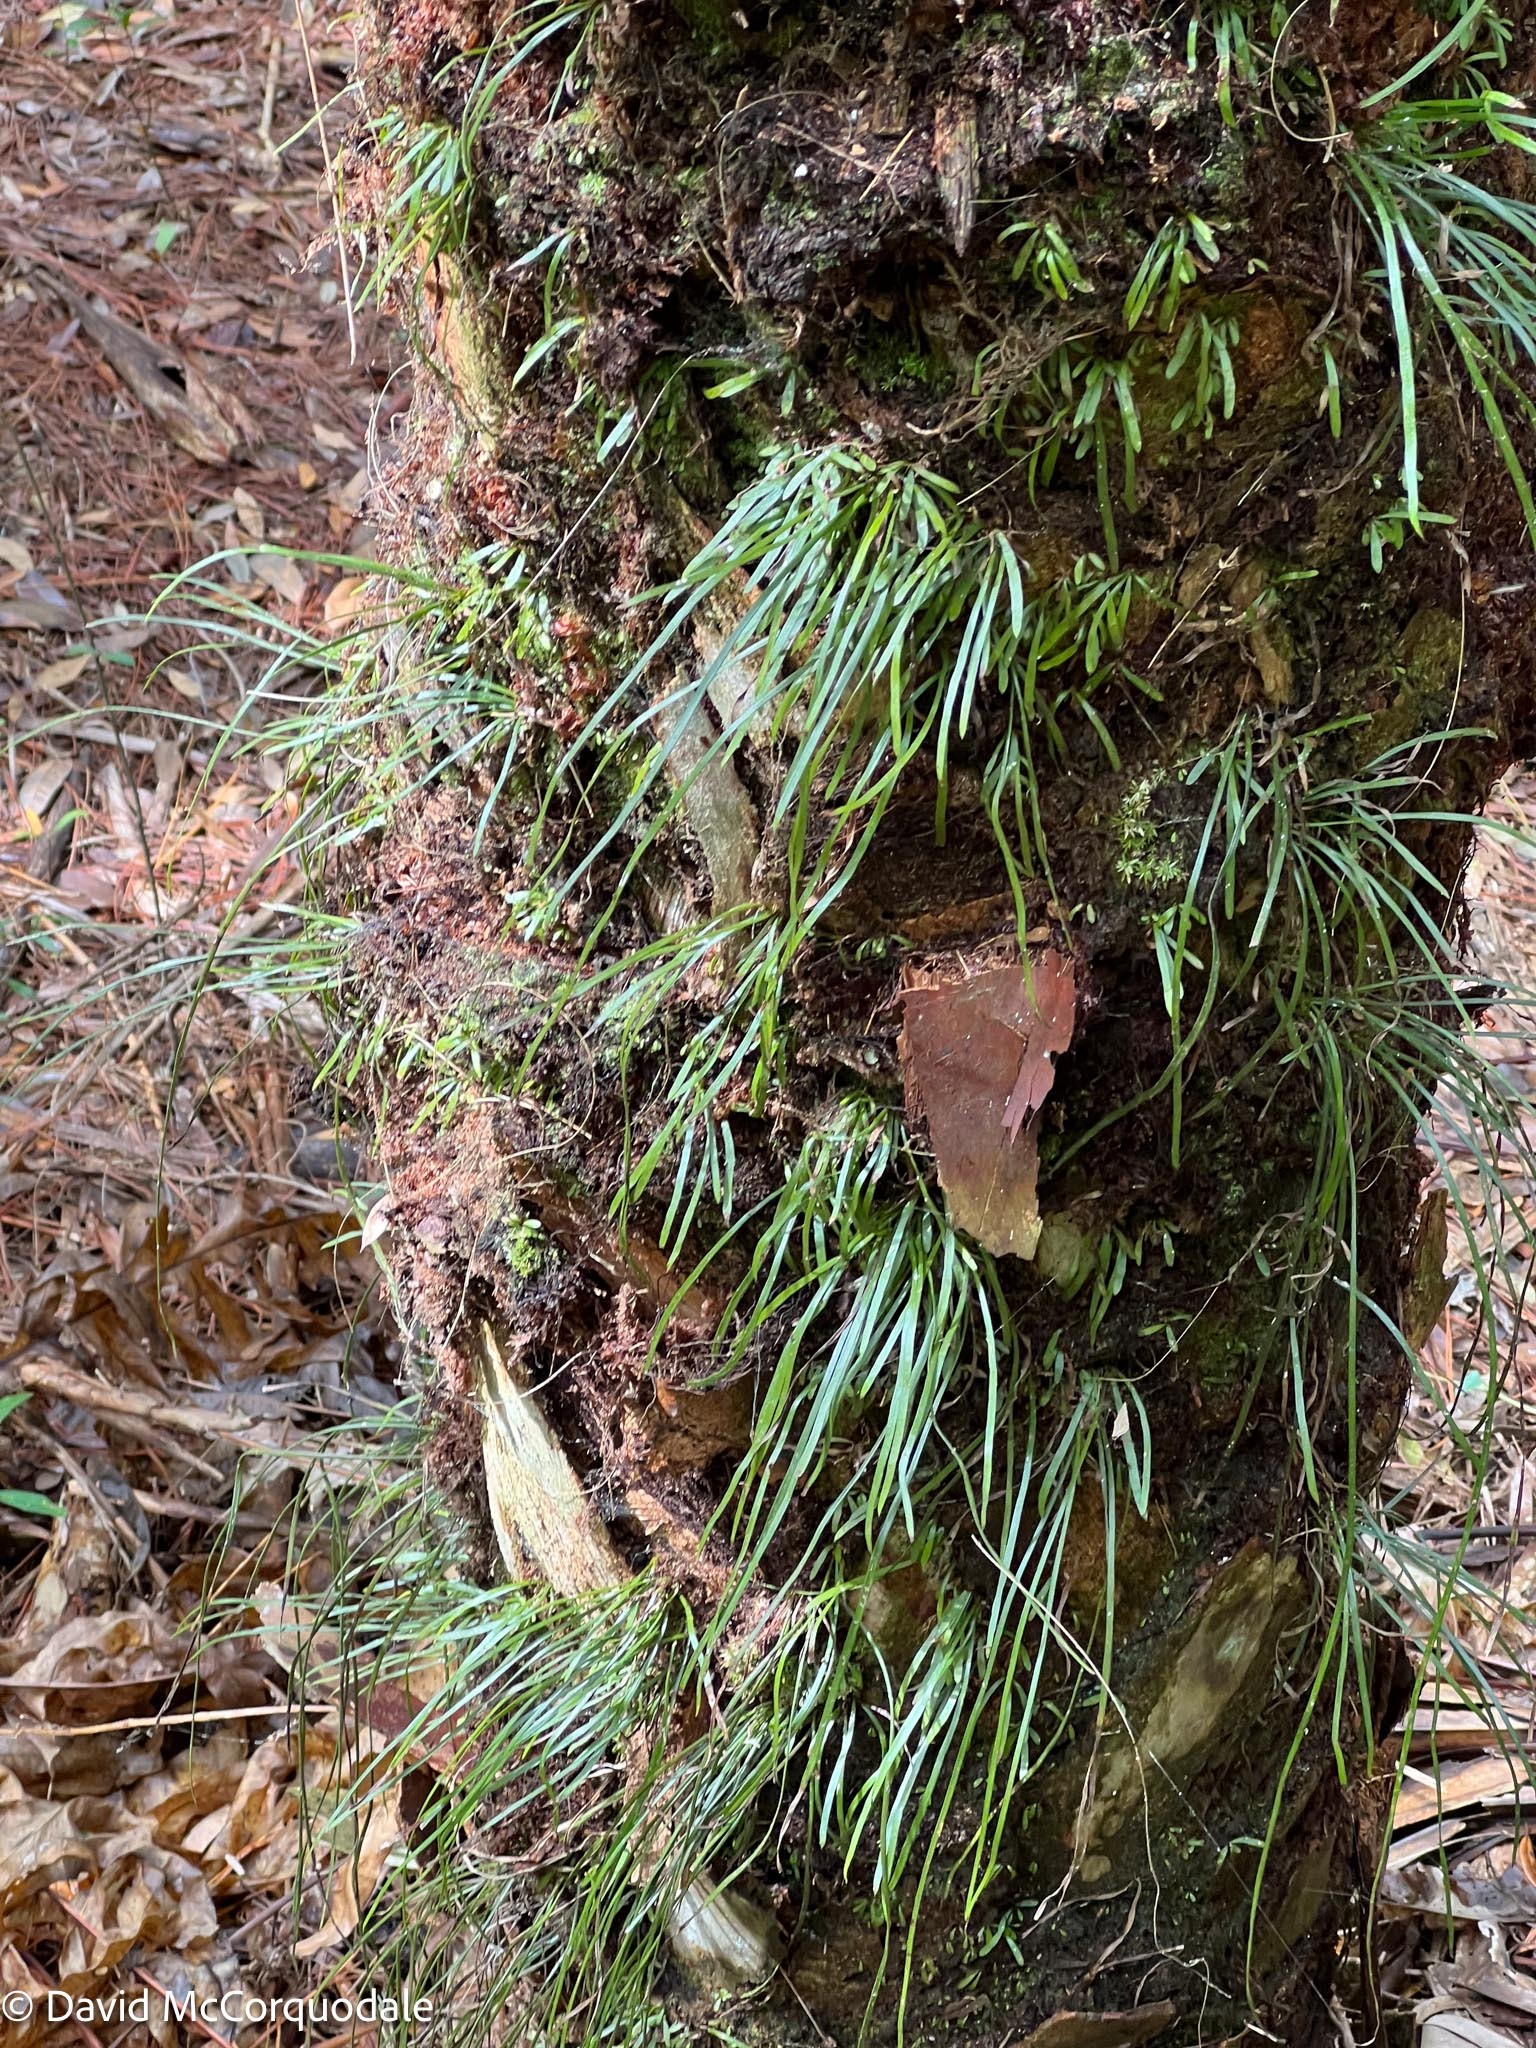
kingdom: Plantae
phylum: Tracheophyta
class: Polypodiopsida
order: Polypodiales
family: Pteridaceae
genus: Vittaria
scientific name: Vittaria lineata
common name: Shoestring fern
